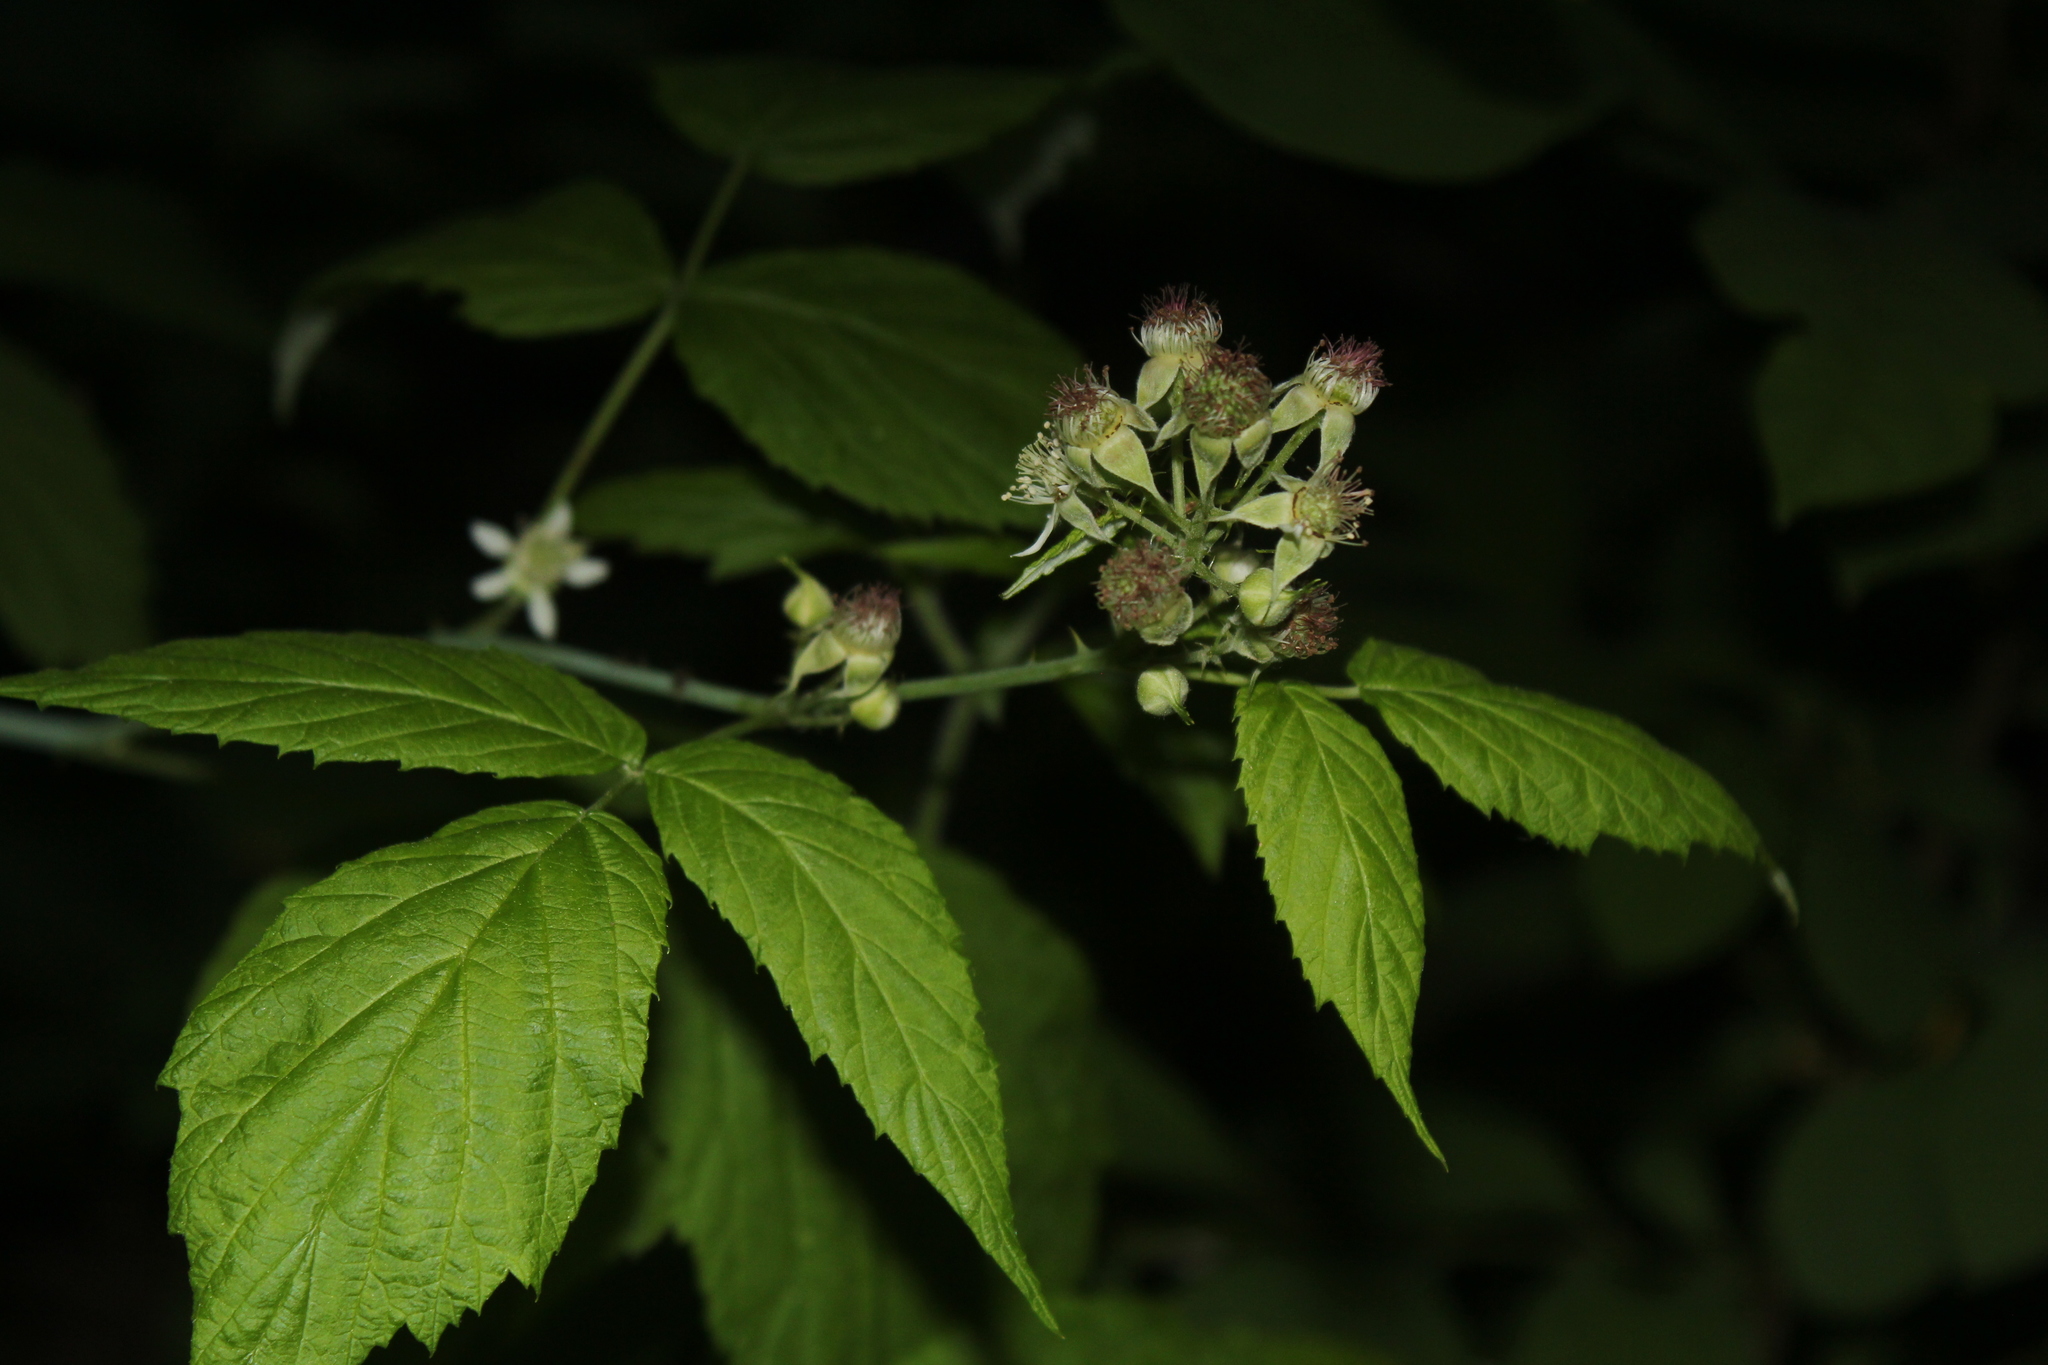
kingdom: Plantae
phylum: Tracheophyta
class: Magnoliopsida
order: Rosales
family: Rosaceae
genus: Rubus
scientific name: Rubus occidentalis
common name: Black raspberry
